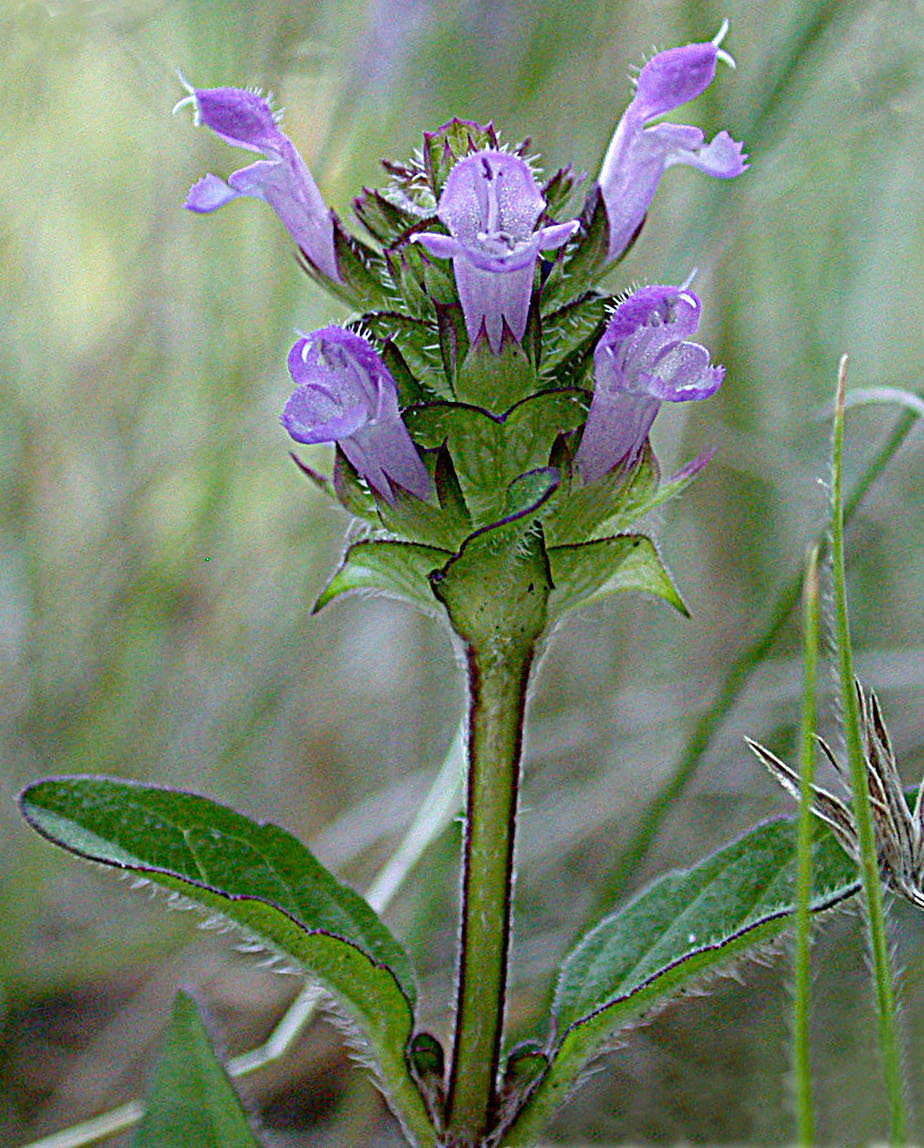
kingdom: Plantae
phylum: Tracheophyta
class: Magnoliopsida
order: Lamiales
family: Lamiaceae
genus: Prunella
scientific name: Prunella vulgaris
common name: Heal-all
